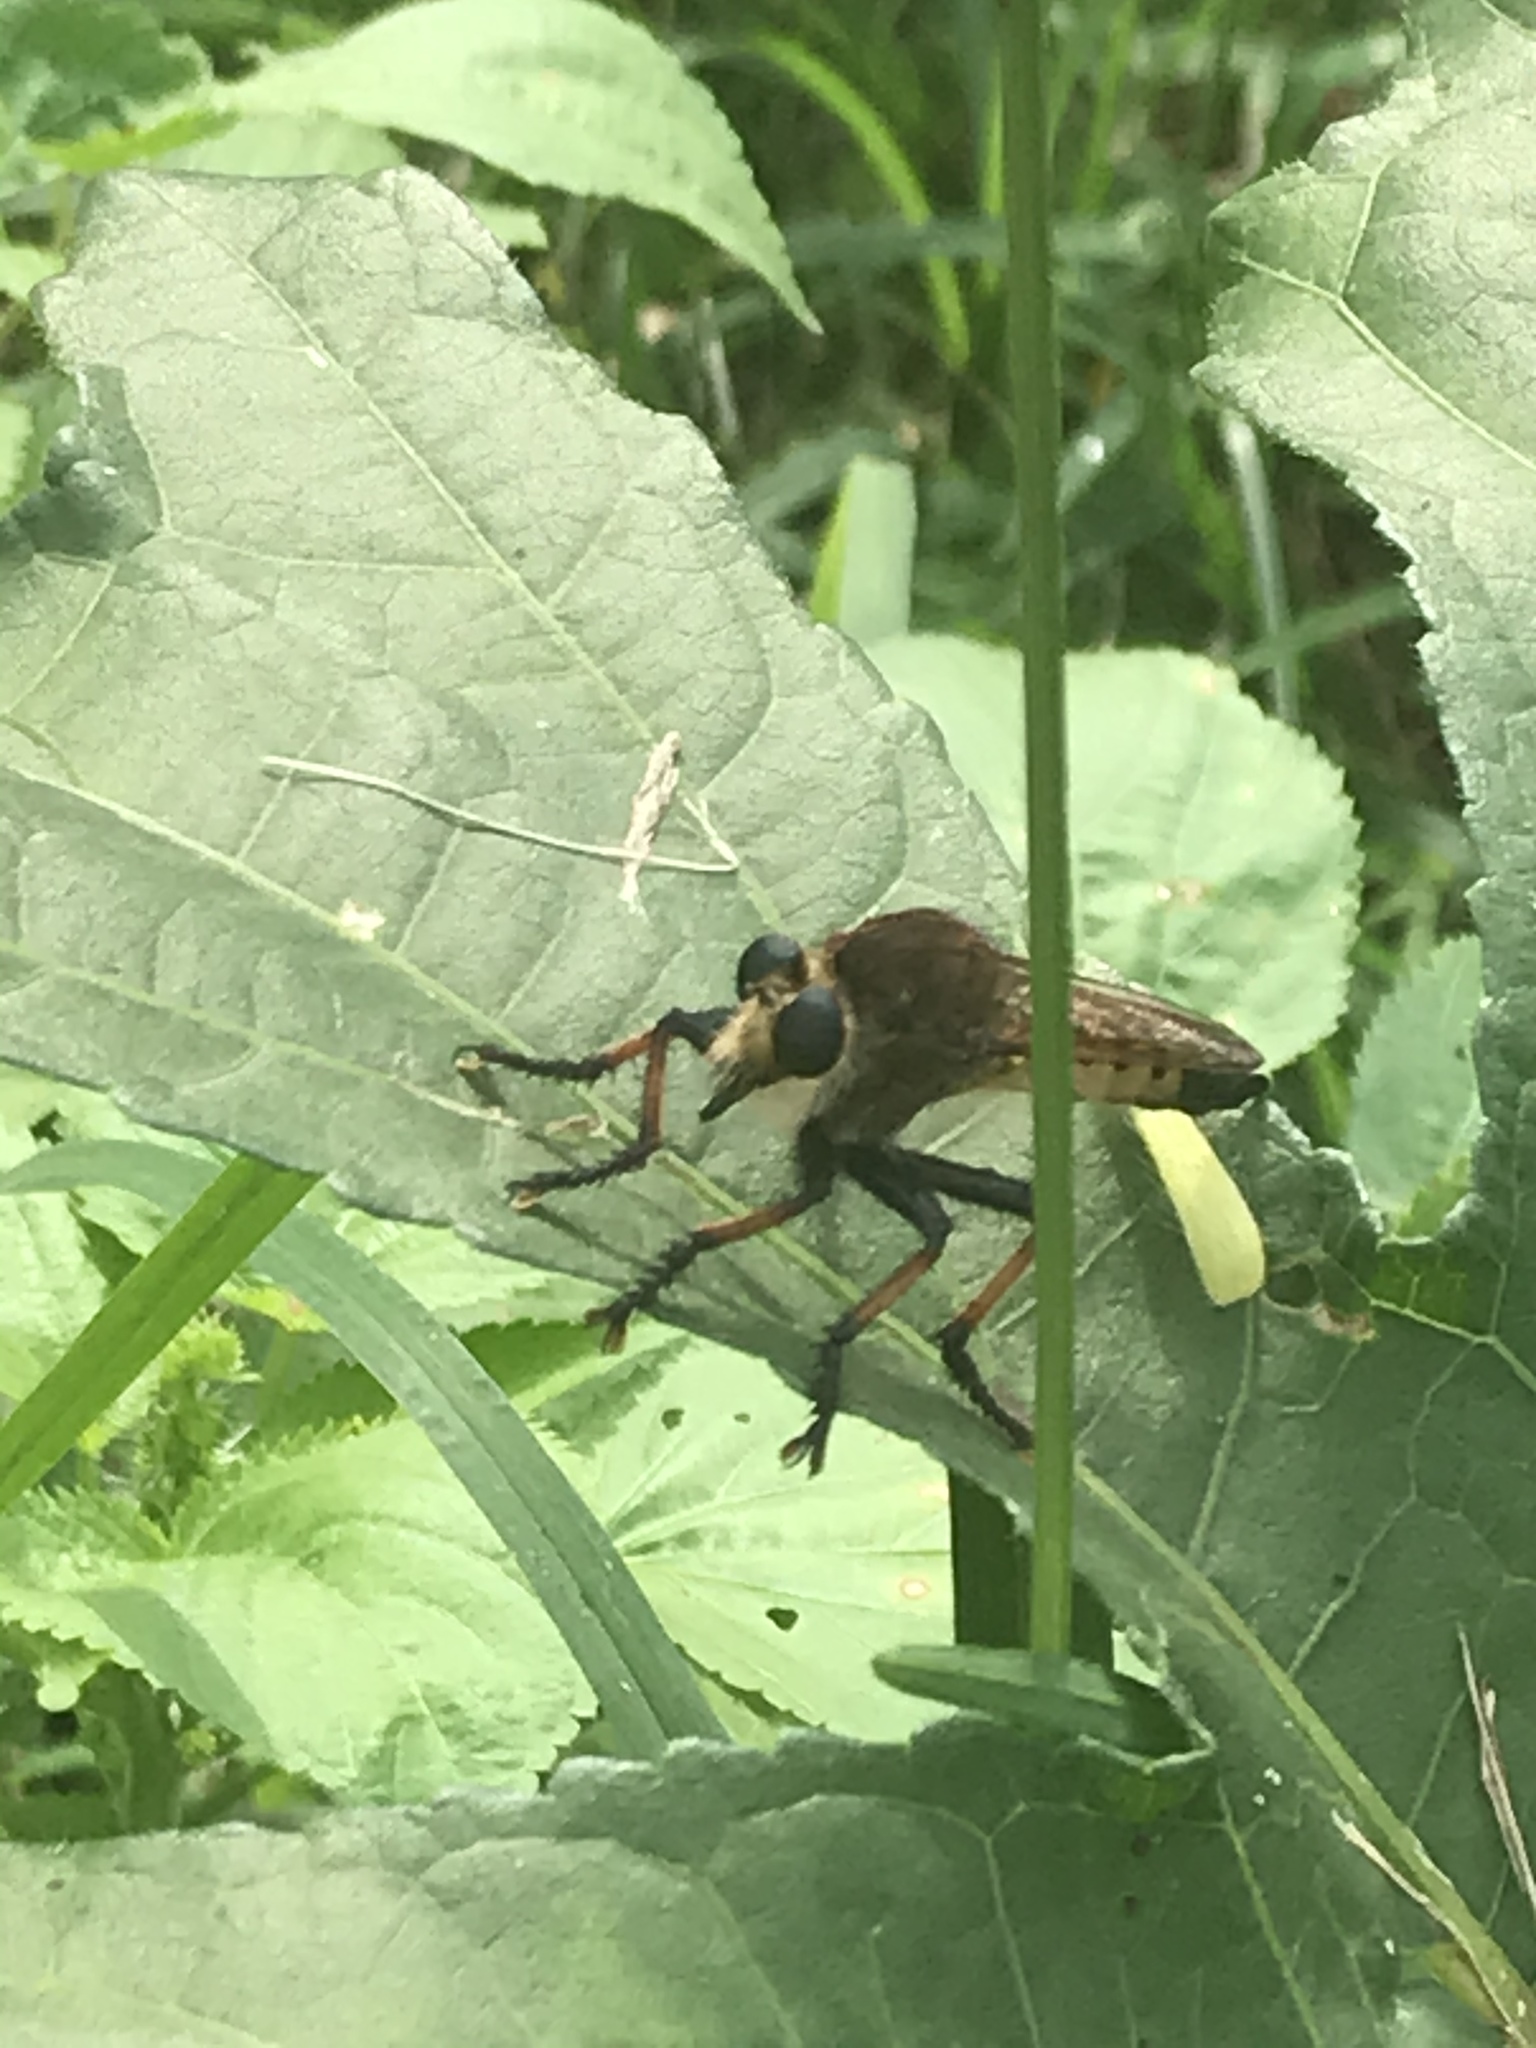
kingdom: Animalia
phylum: Arthropoda
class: Insecta
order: Diptera
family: Asilidae
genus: Promachus
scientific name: Promachus rufipes
